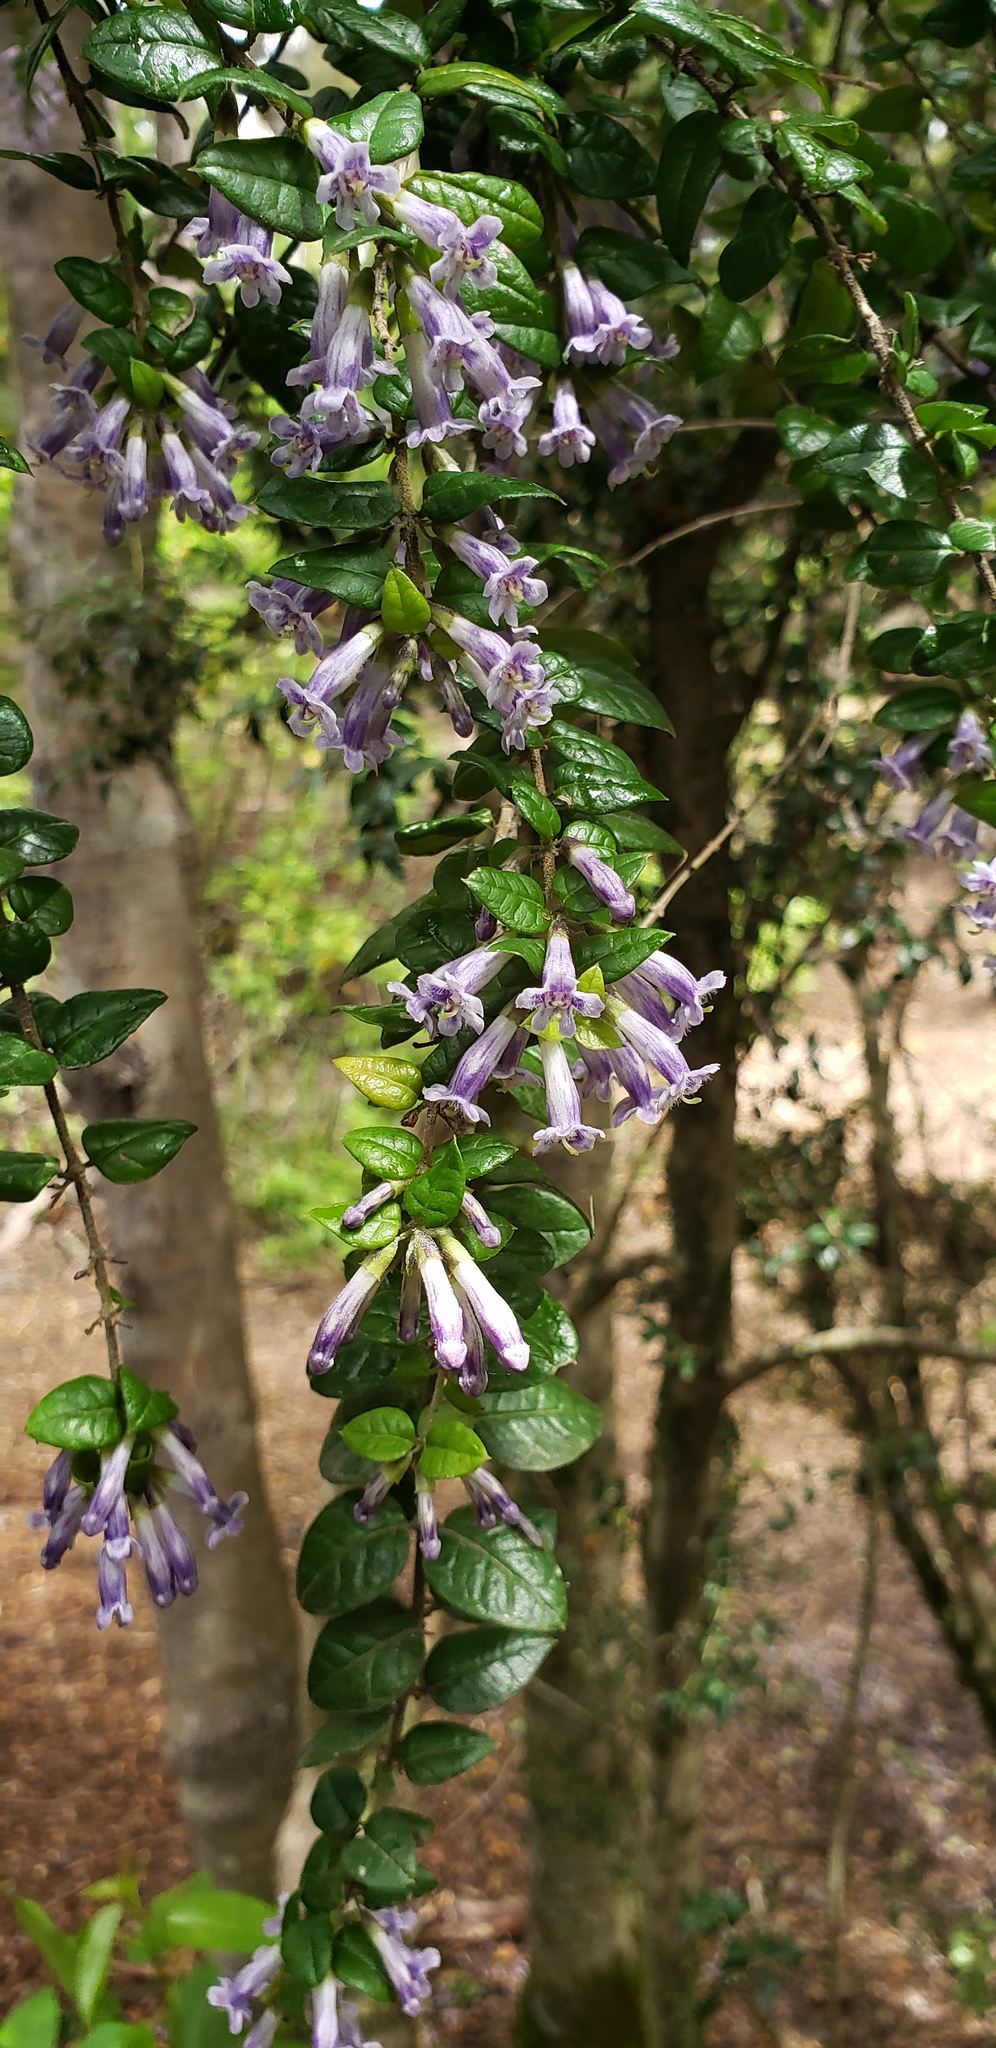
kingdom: Plantae
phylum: Tracheophyta
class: Magnoliopsida
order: Lamiales
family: Verbenaceae
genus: Rhaphithamnus
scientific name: Rhaphithamnus spinosus
